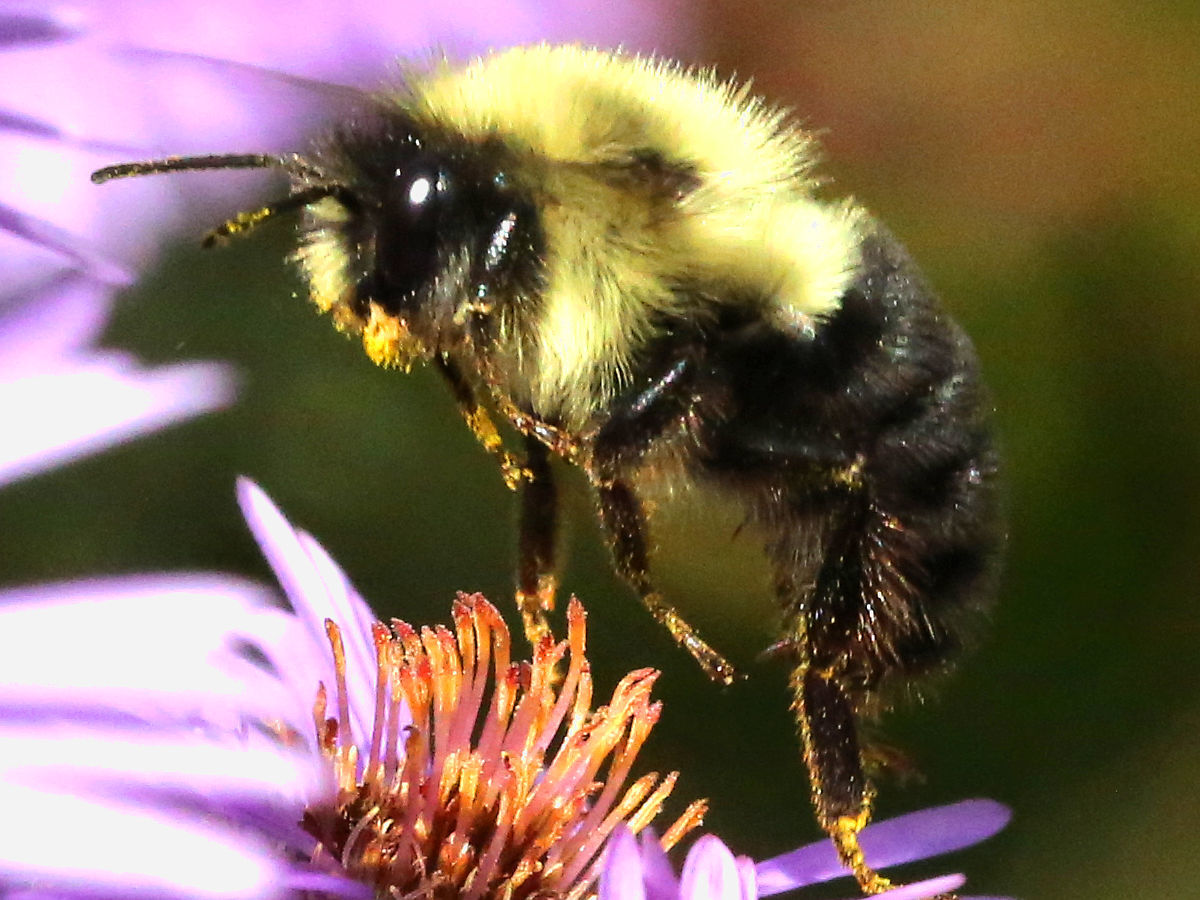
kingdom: Animalia
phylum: Arthropoda
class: Insecta
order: Hymenoptera
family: Apidae
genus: Bombus
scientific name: Bombus impatiens
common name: Common eastern bumble bee
